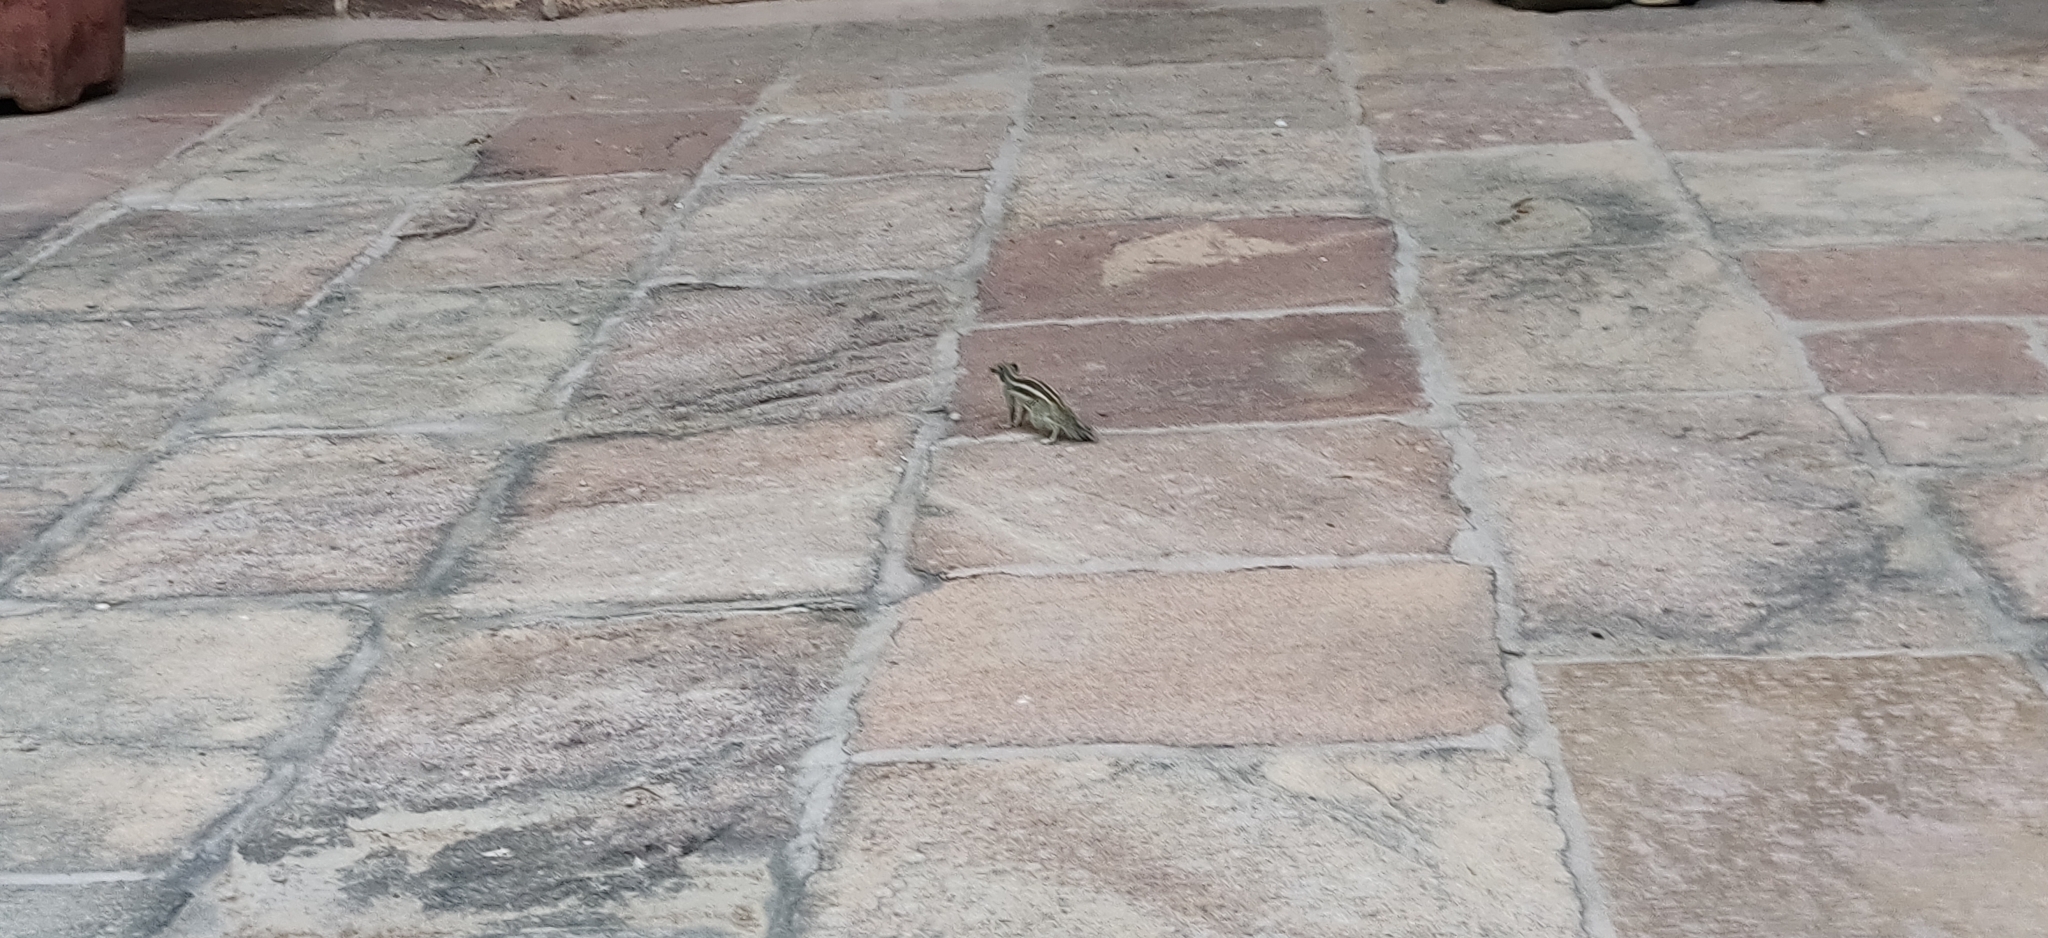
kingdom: Animalia
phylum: Chordata
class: Mammalia
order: Rodentia
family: Sciuridae
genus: Funambulus
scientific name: Funambulus pennantii
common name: Northern palm squirrel
